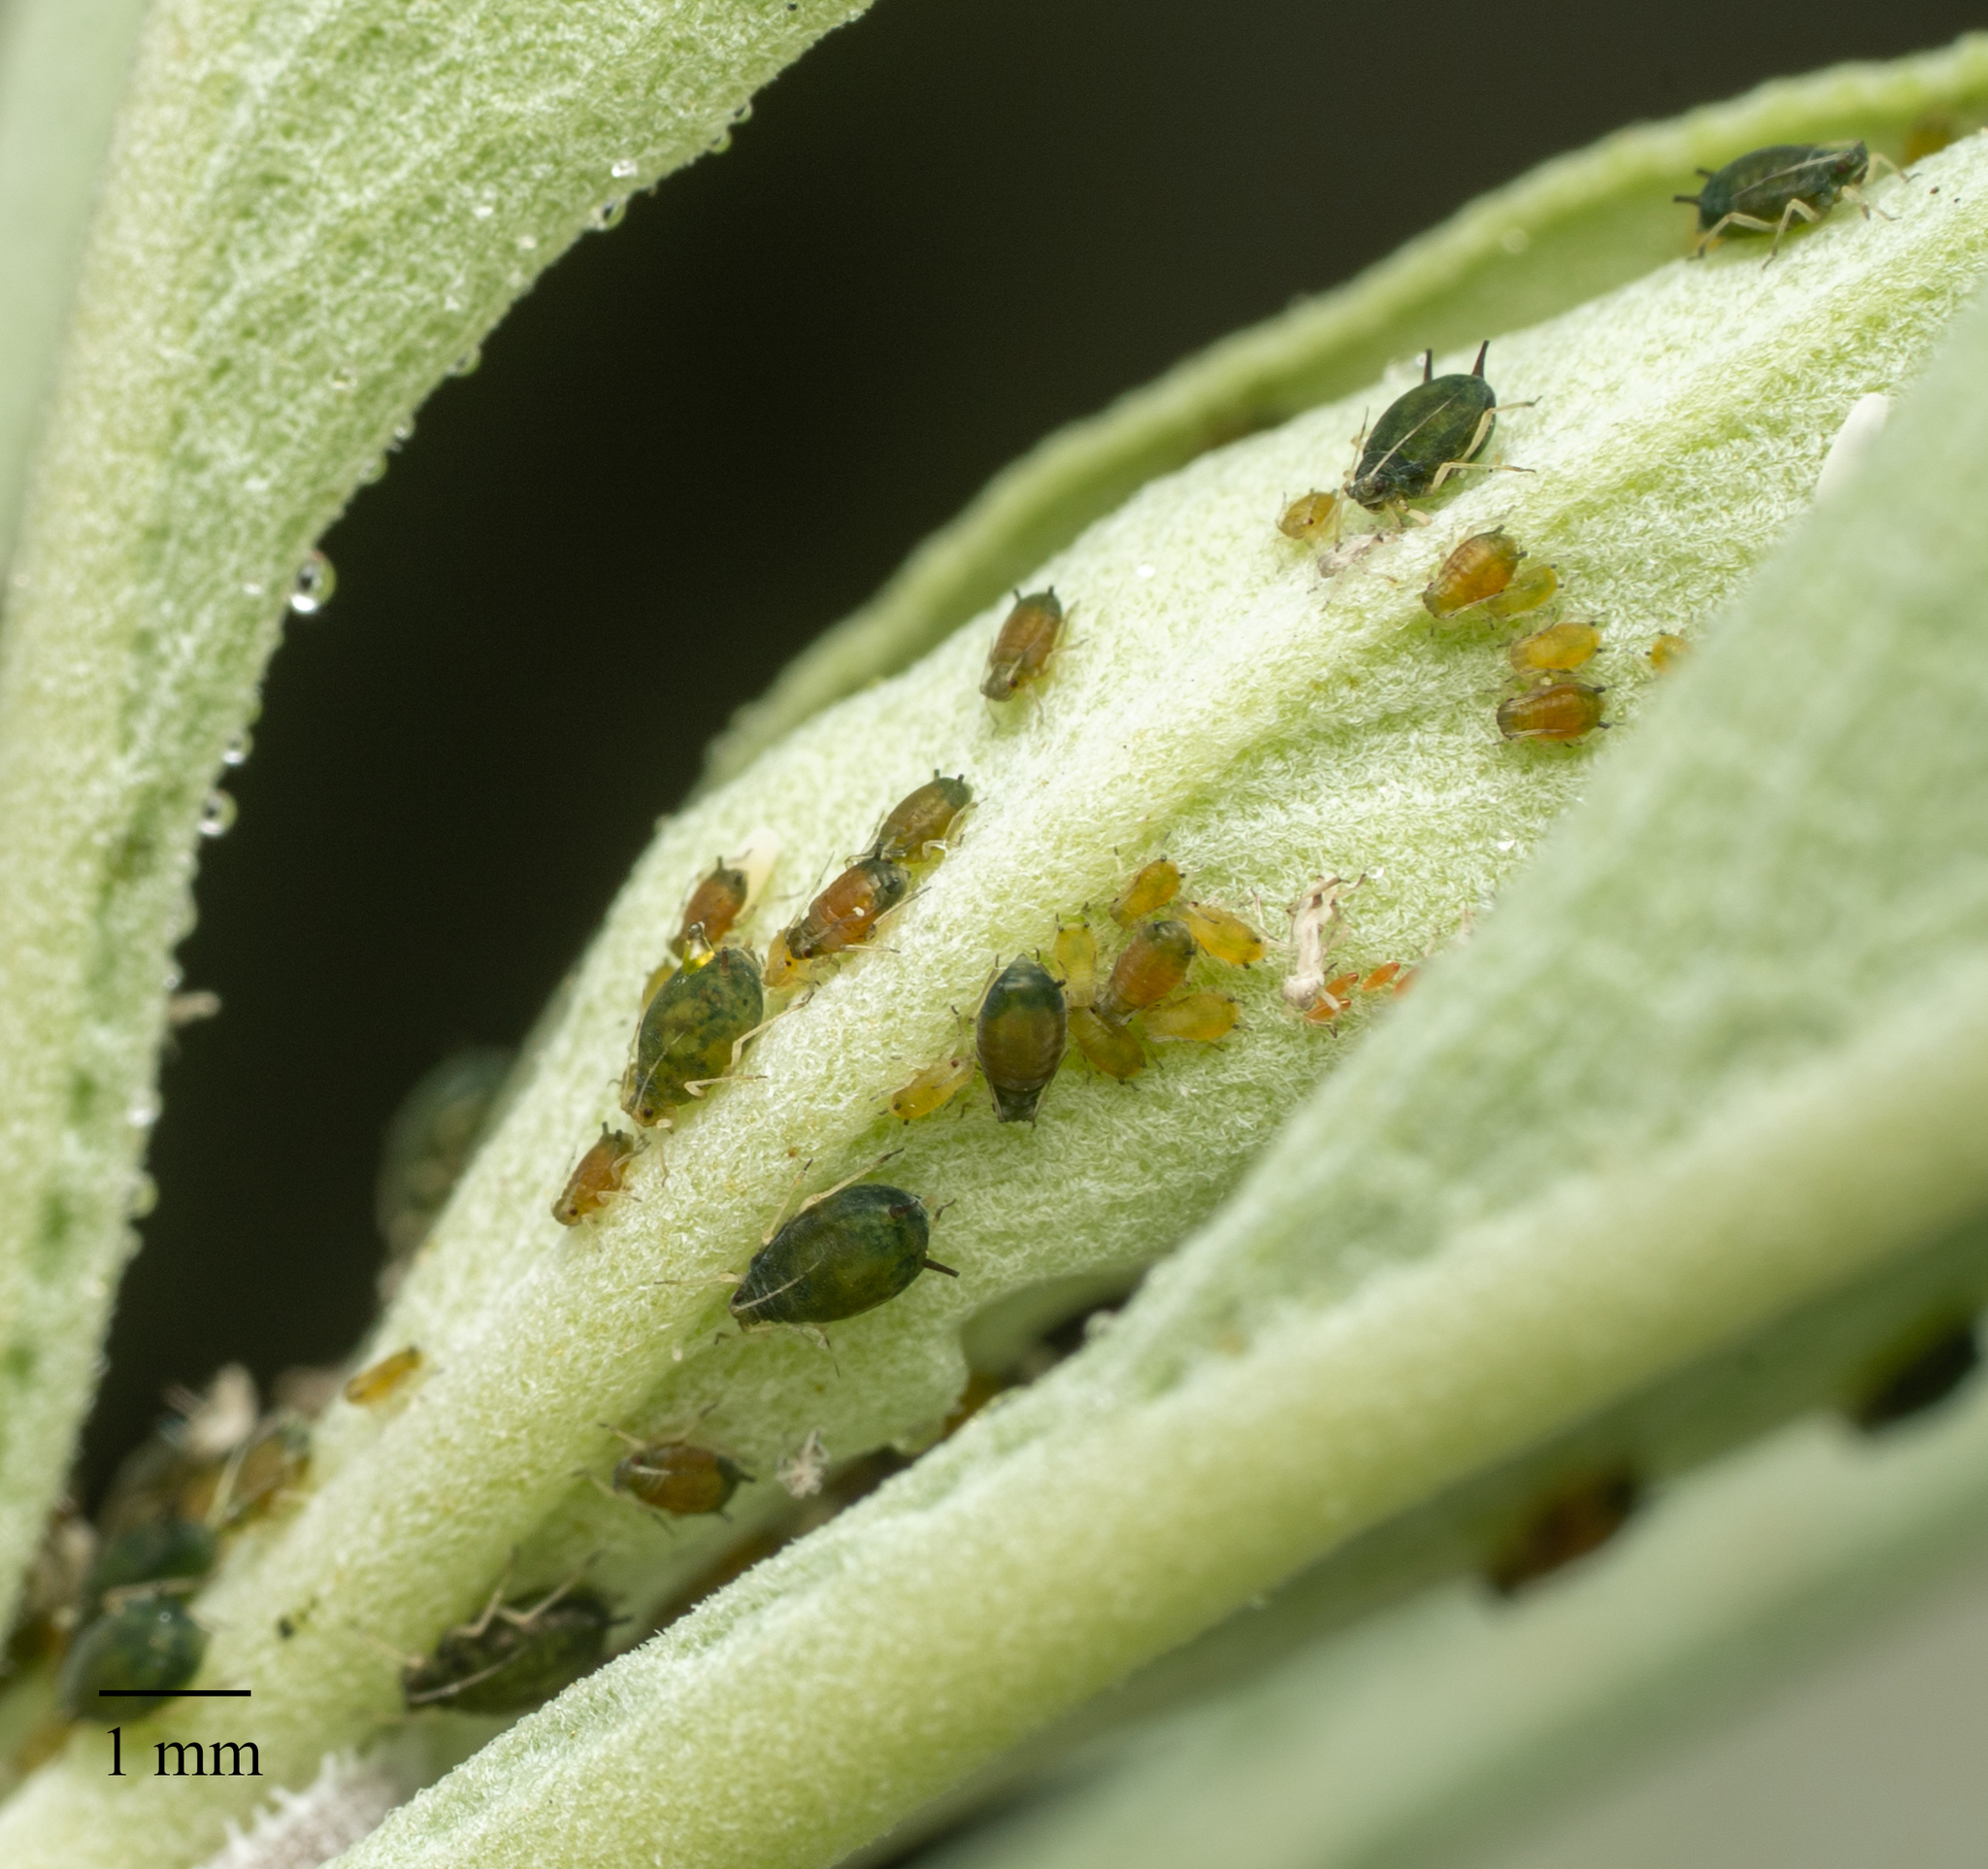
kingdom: Animalia
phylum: Arthropoda
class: Insecta
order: Hemiptera
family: Aphididae
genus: Aphis
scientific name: Aphis gossypii
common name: Melon aphid
